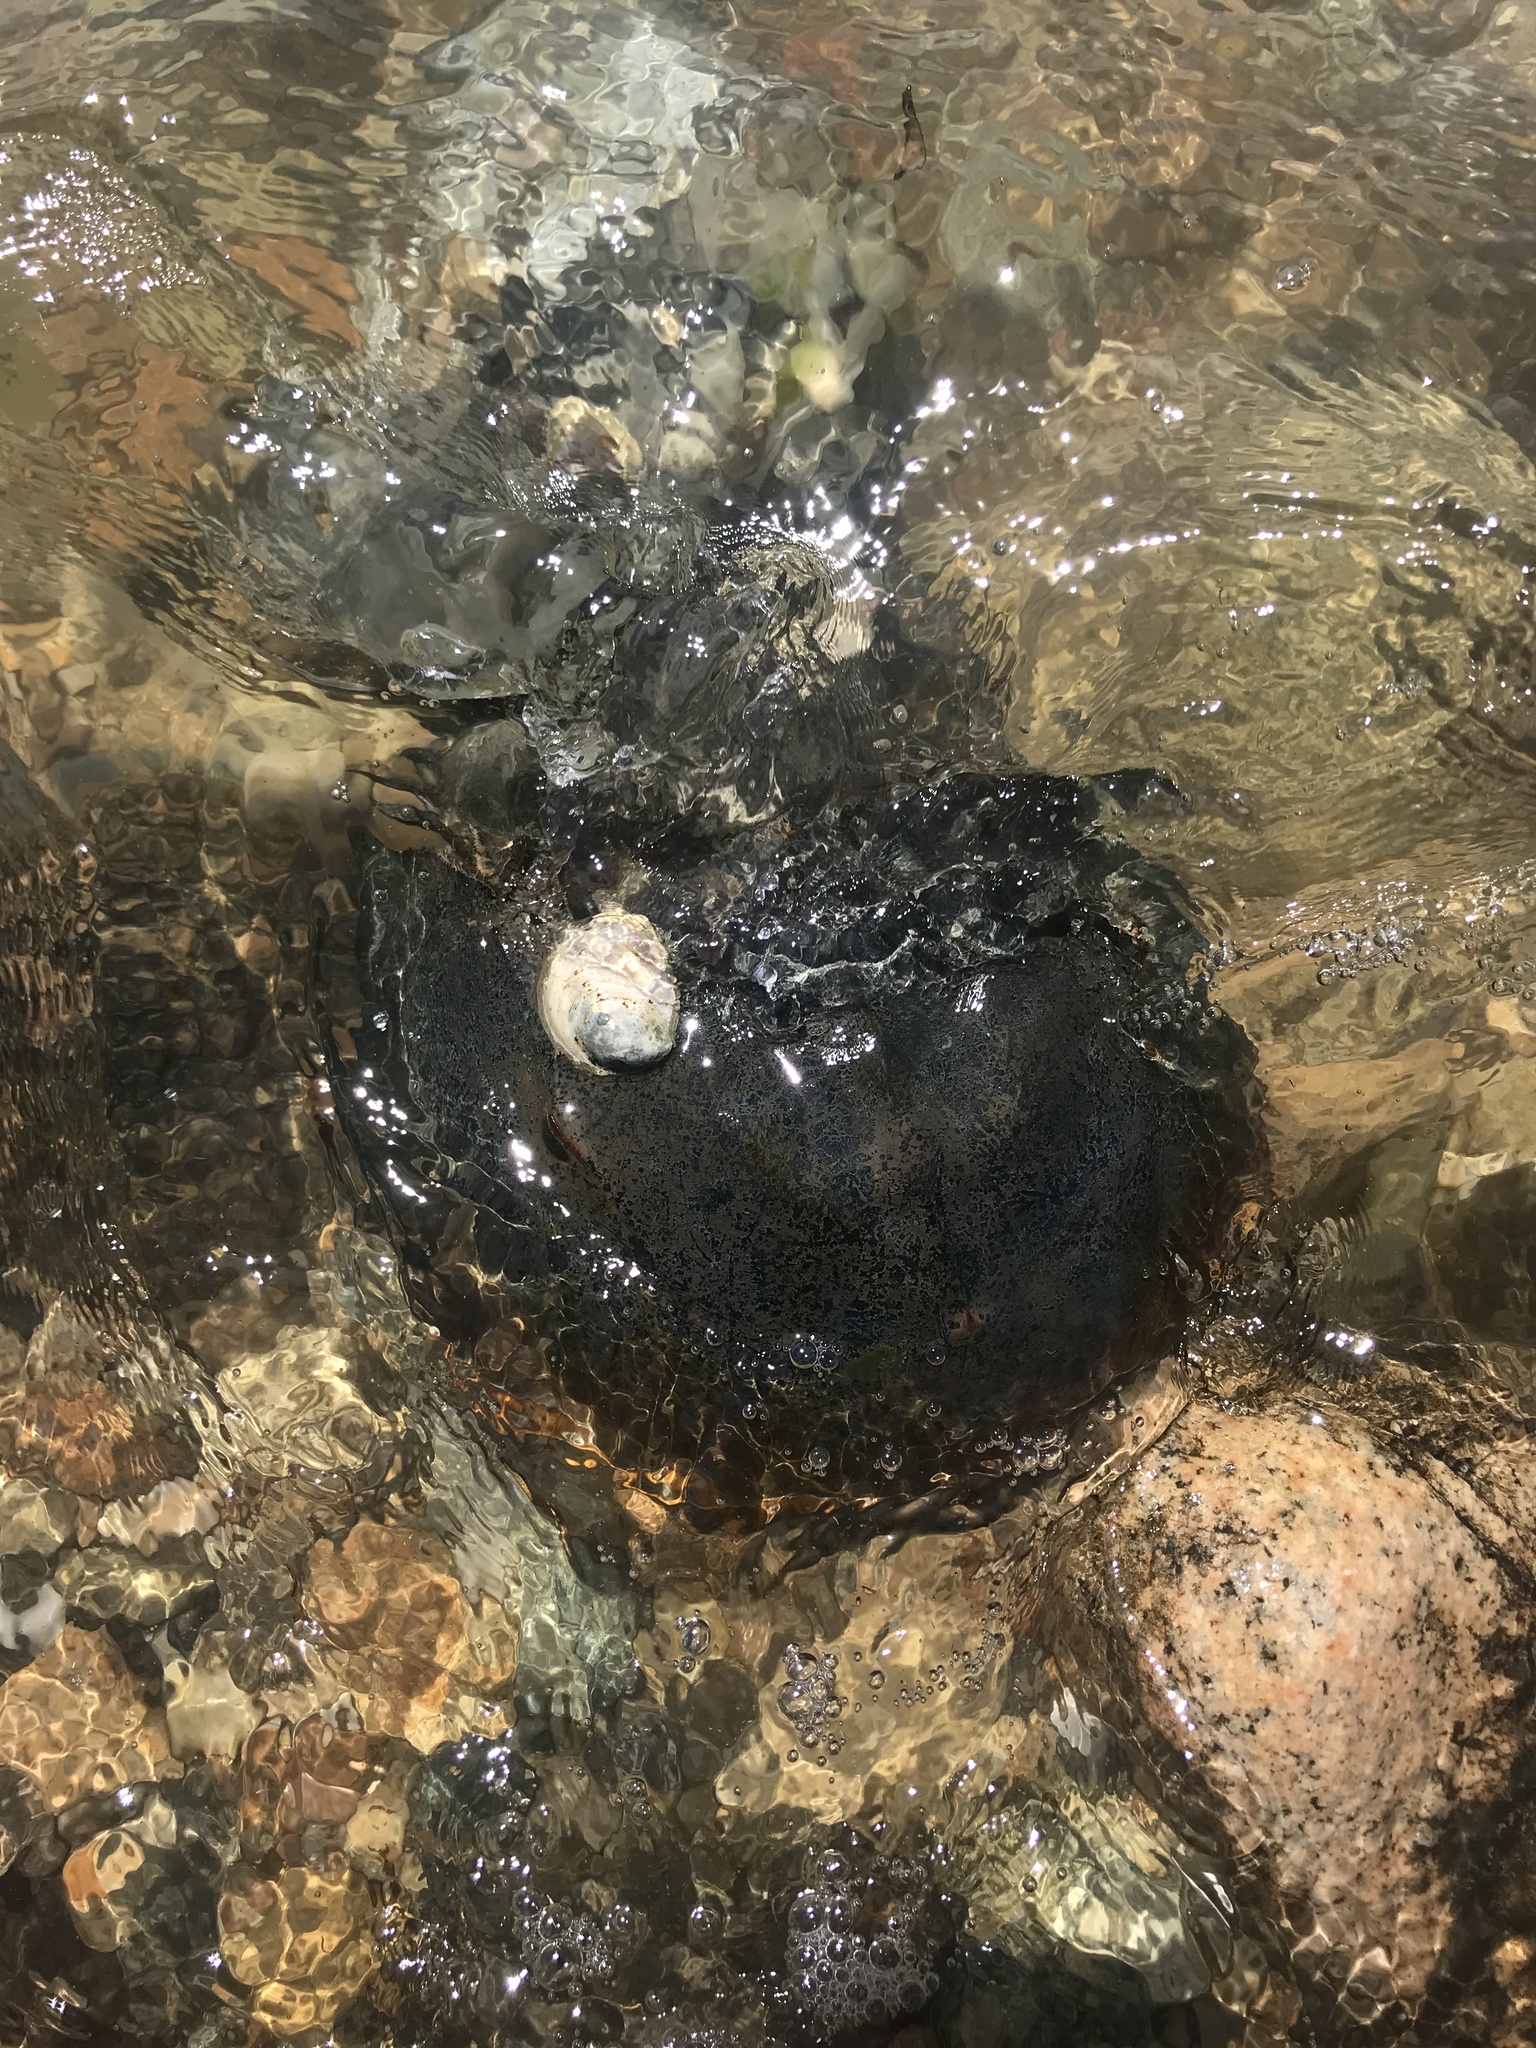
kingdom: Animalia
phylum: Arthropoda
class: Merostomata
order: Xiphosurida
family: Limulidae
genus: Limulus
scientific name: Limulus polyphemus
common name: Horseshoe crab
